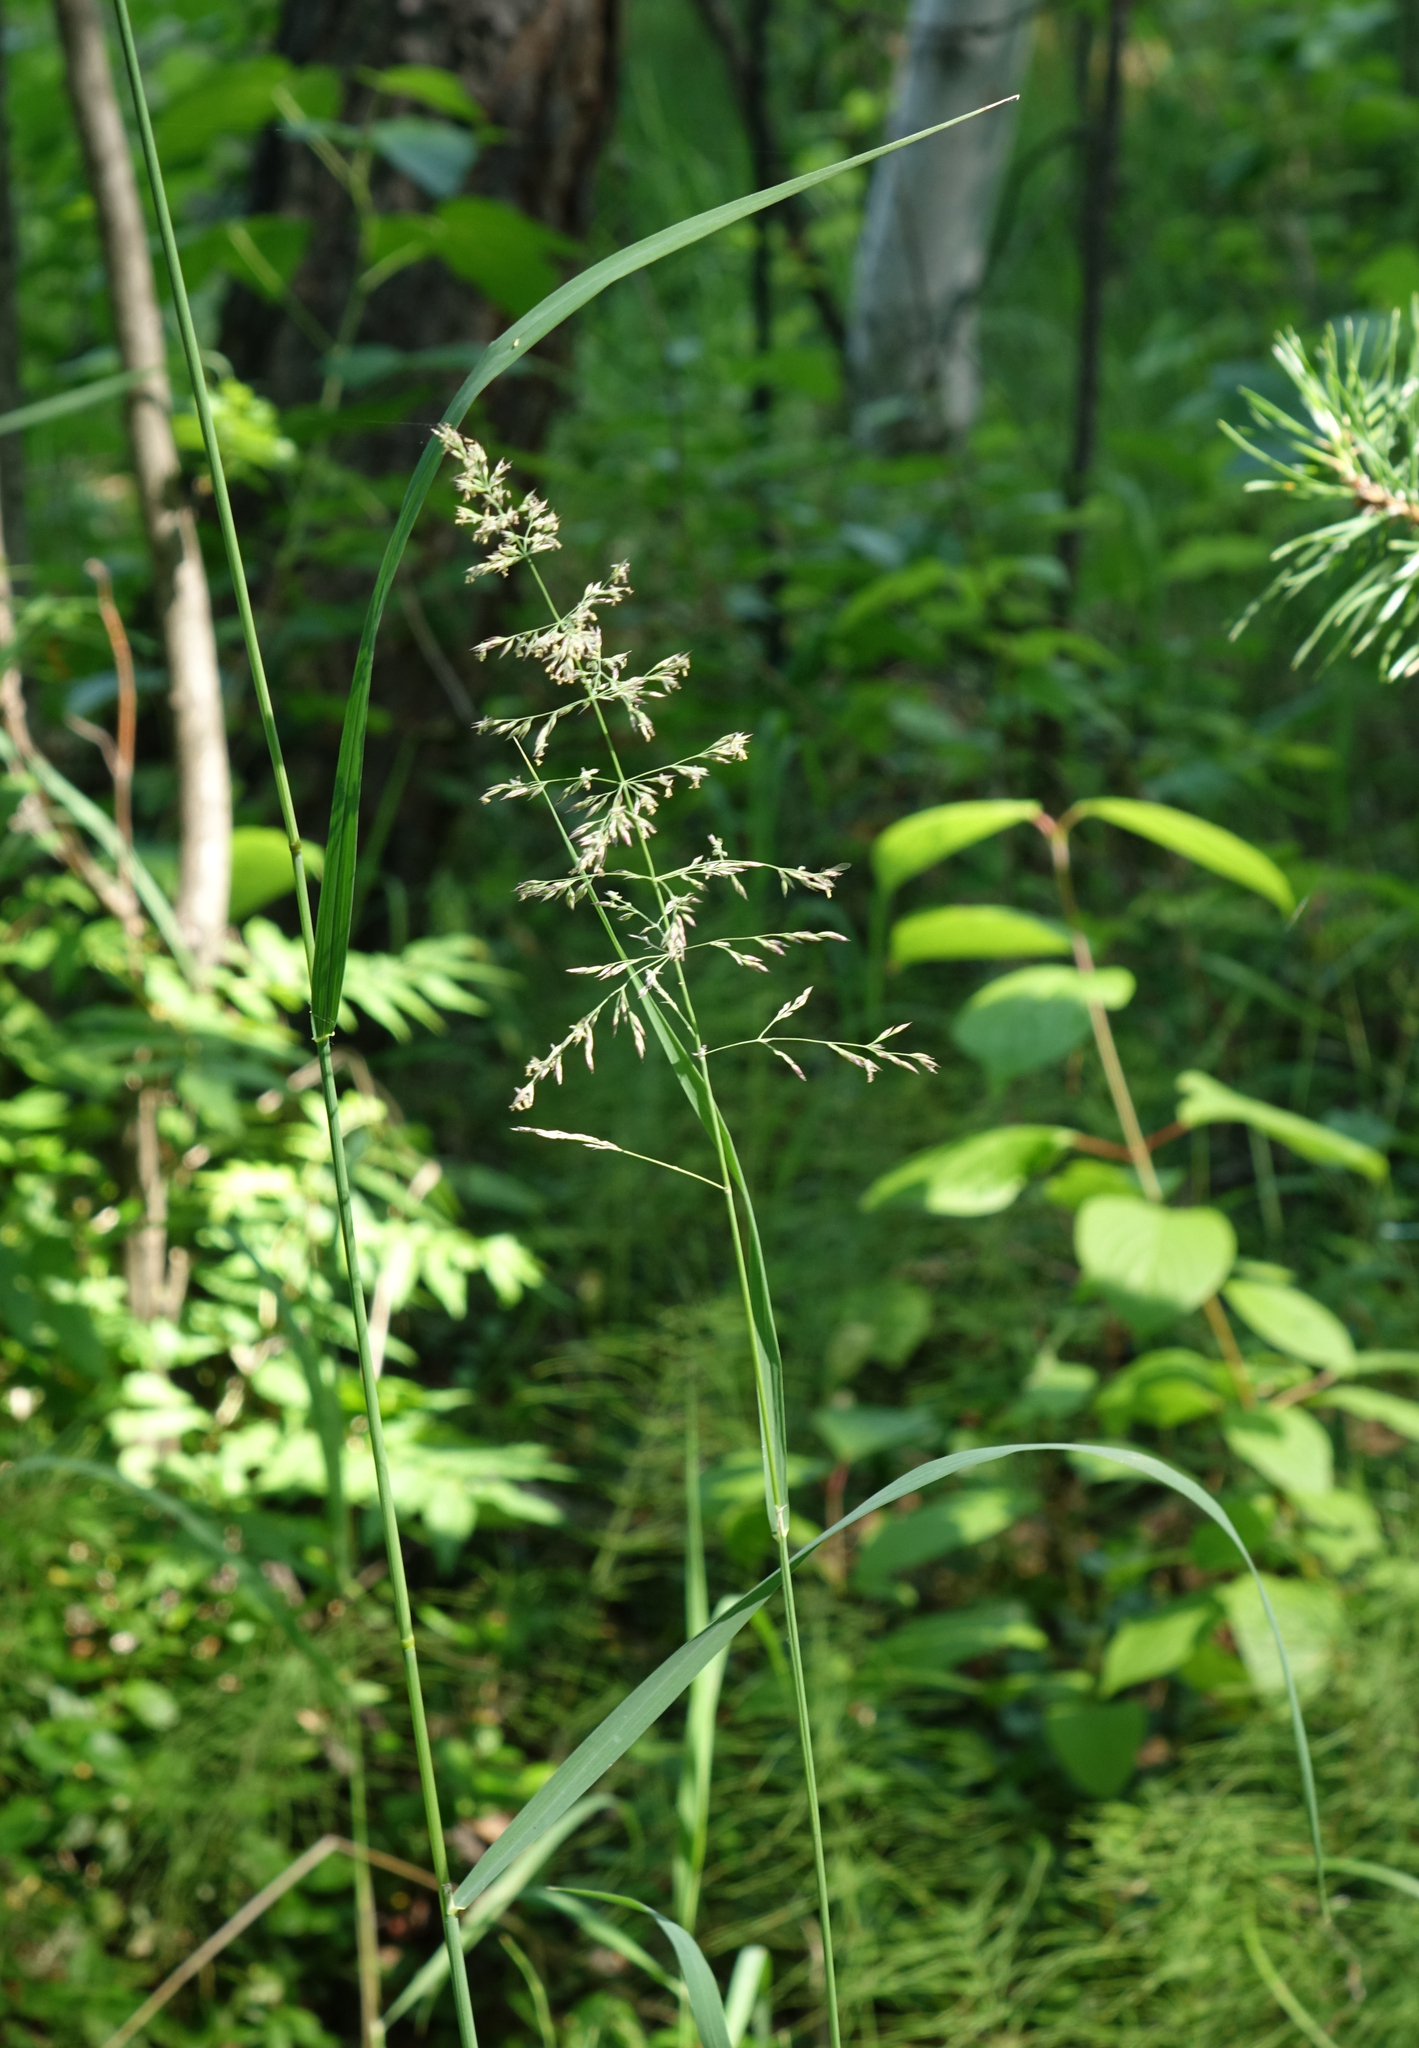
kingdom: Plantae
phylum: Tracheophyta
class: Liliopsida
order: Poales
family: Poaceae
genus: Calamagrostis
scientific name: Calamagrostis purpurea
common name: Scandinavian small-reed
